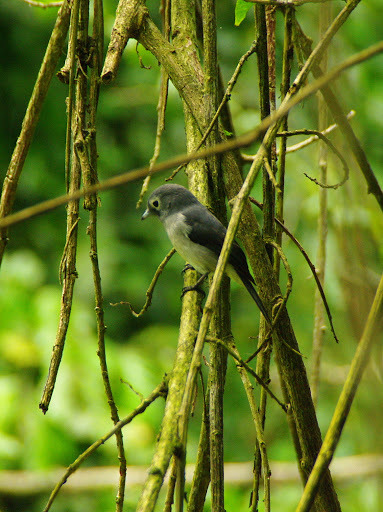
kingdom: Animalia
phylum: Chordata
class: Aves
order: Passeriformes
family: Muscicapidae
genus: Dioptrornis
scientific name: Dioptrornis fischeri
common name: White-eyed slaty flycatcher
